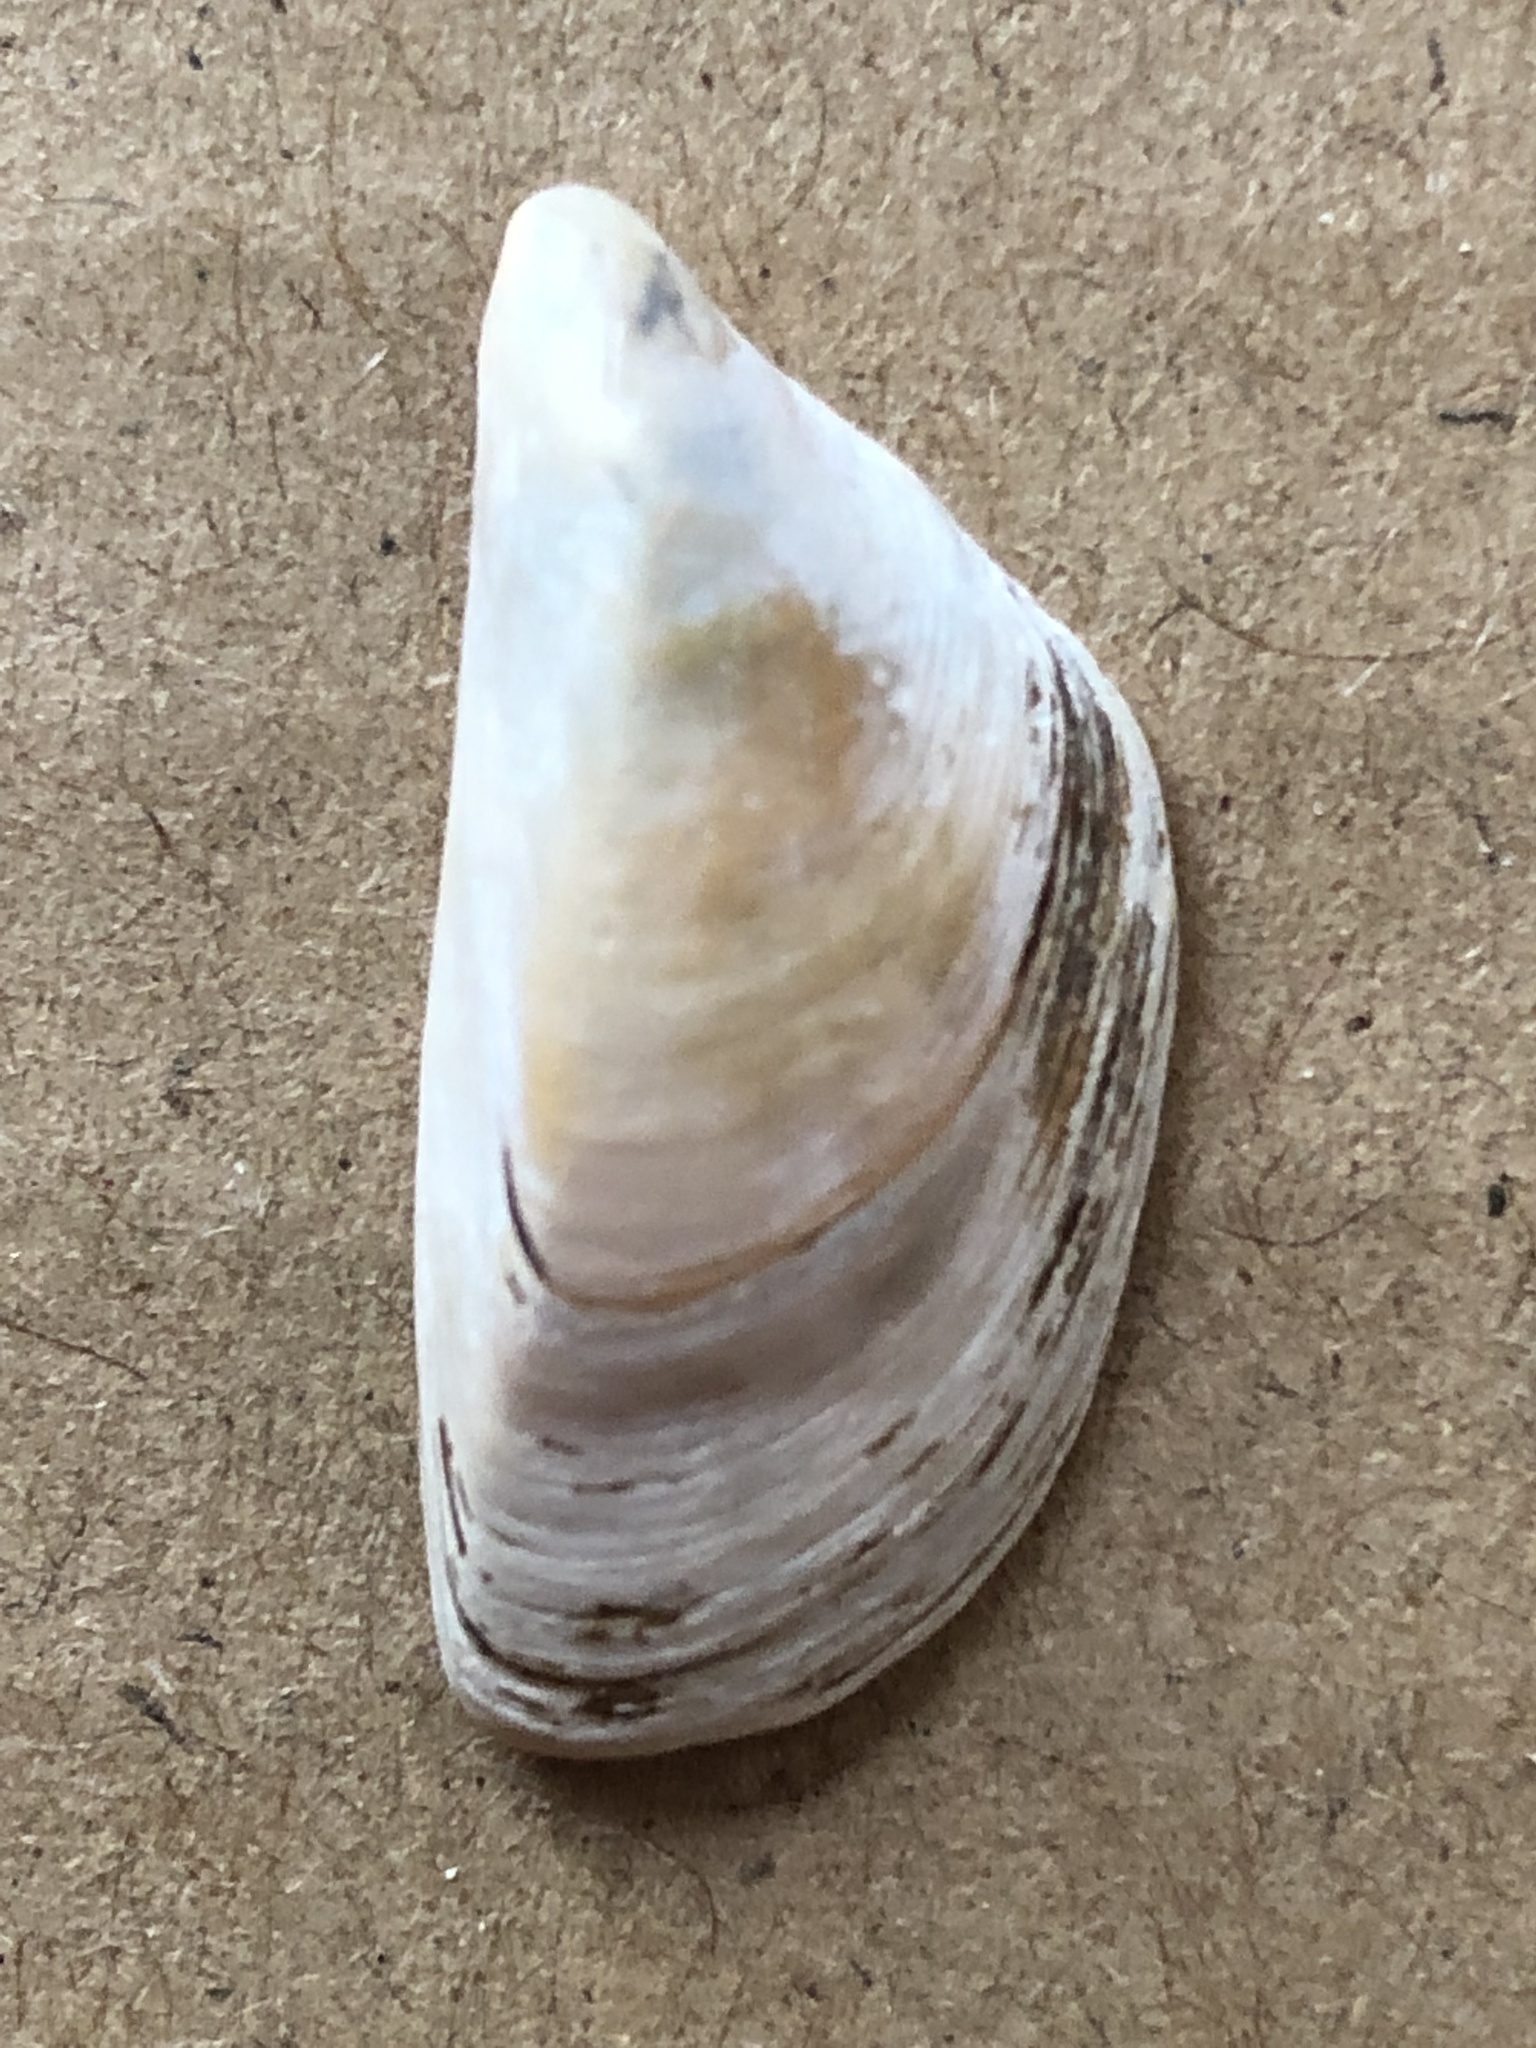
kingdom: Animalia
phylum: Mollusca
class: Bivalvia
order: Myida
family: Dreissenidae
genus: Dreissena
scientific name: Dreissena polymorpha
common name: Zebra mussel
